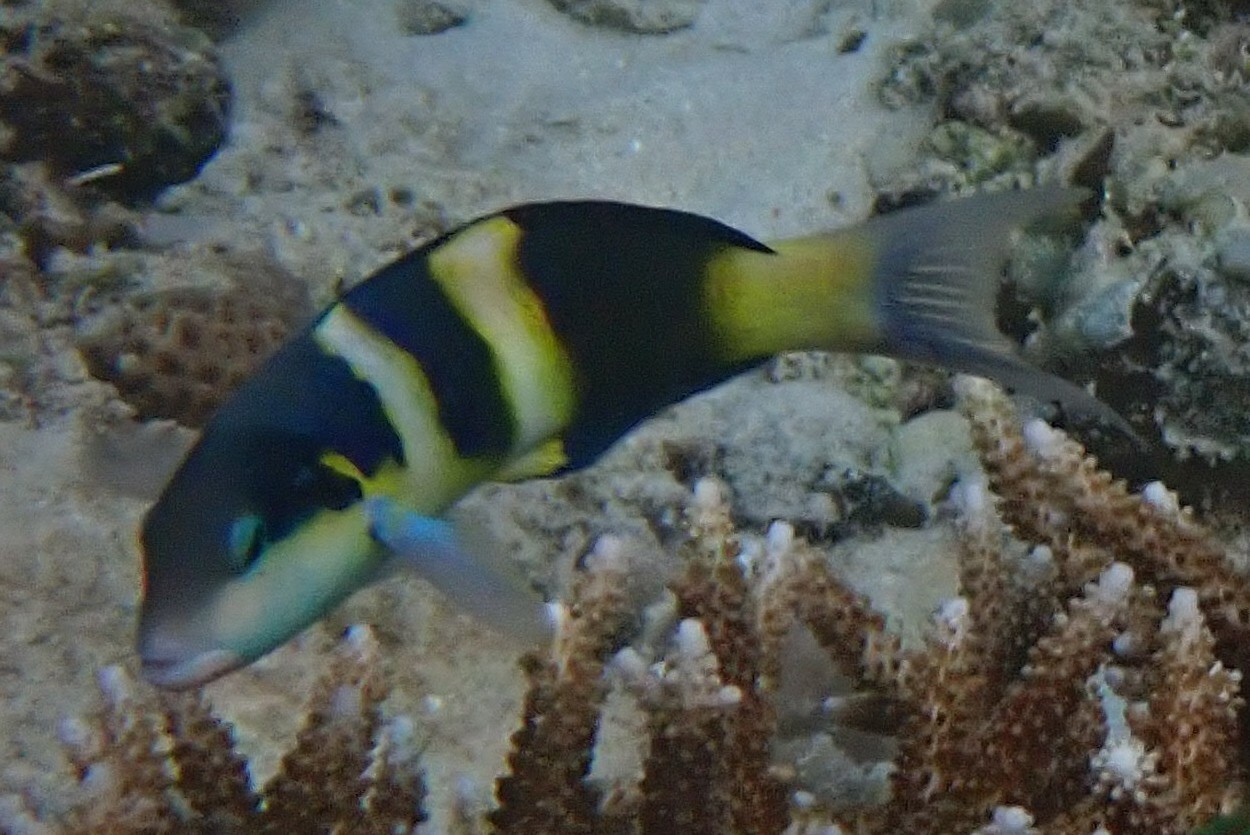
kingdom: Animalia
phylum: Chordata
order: Perciformes
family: Labridae
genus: Thalassoma
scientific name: Thalassoma jansenii
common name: Jansen's wrasse
